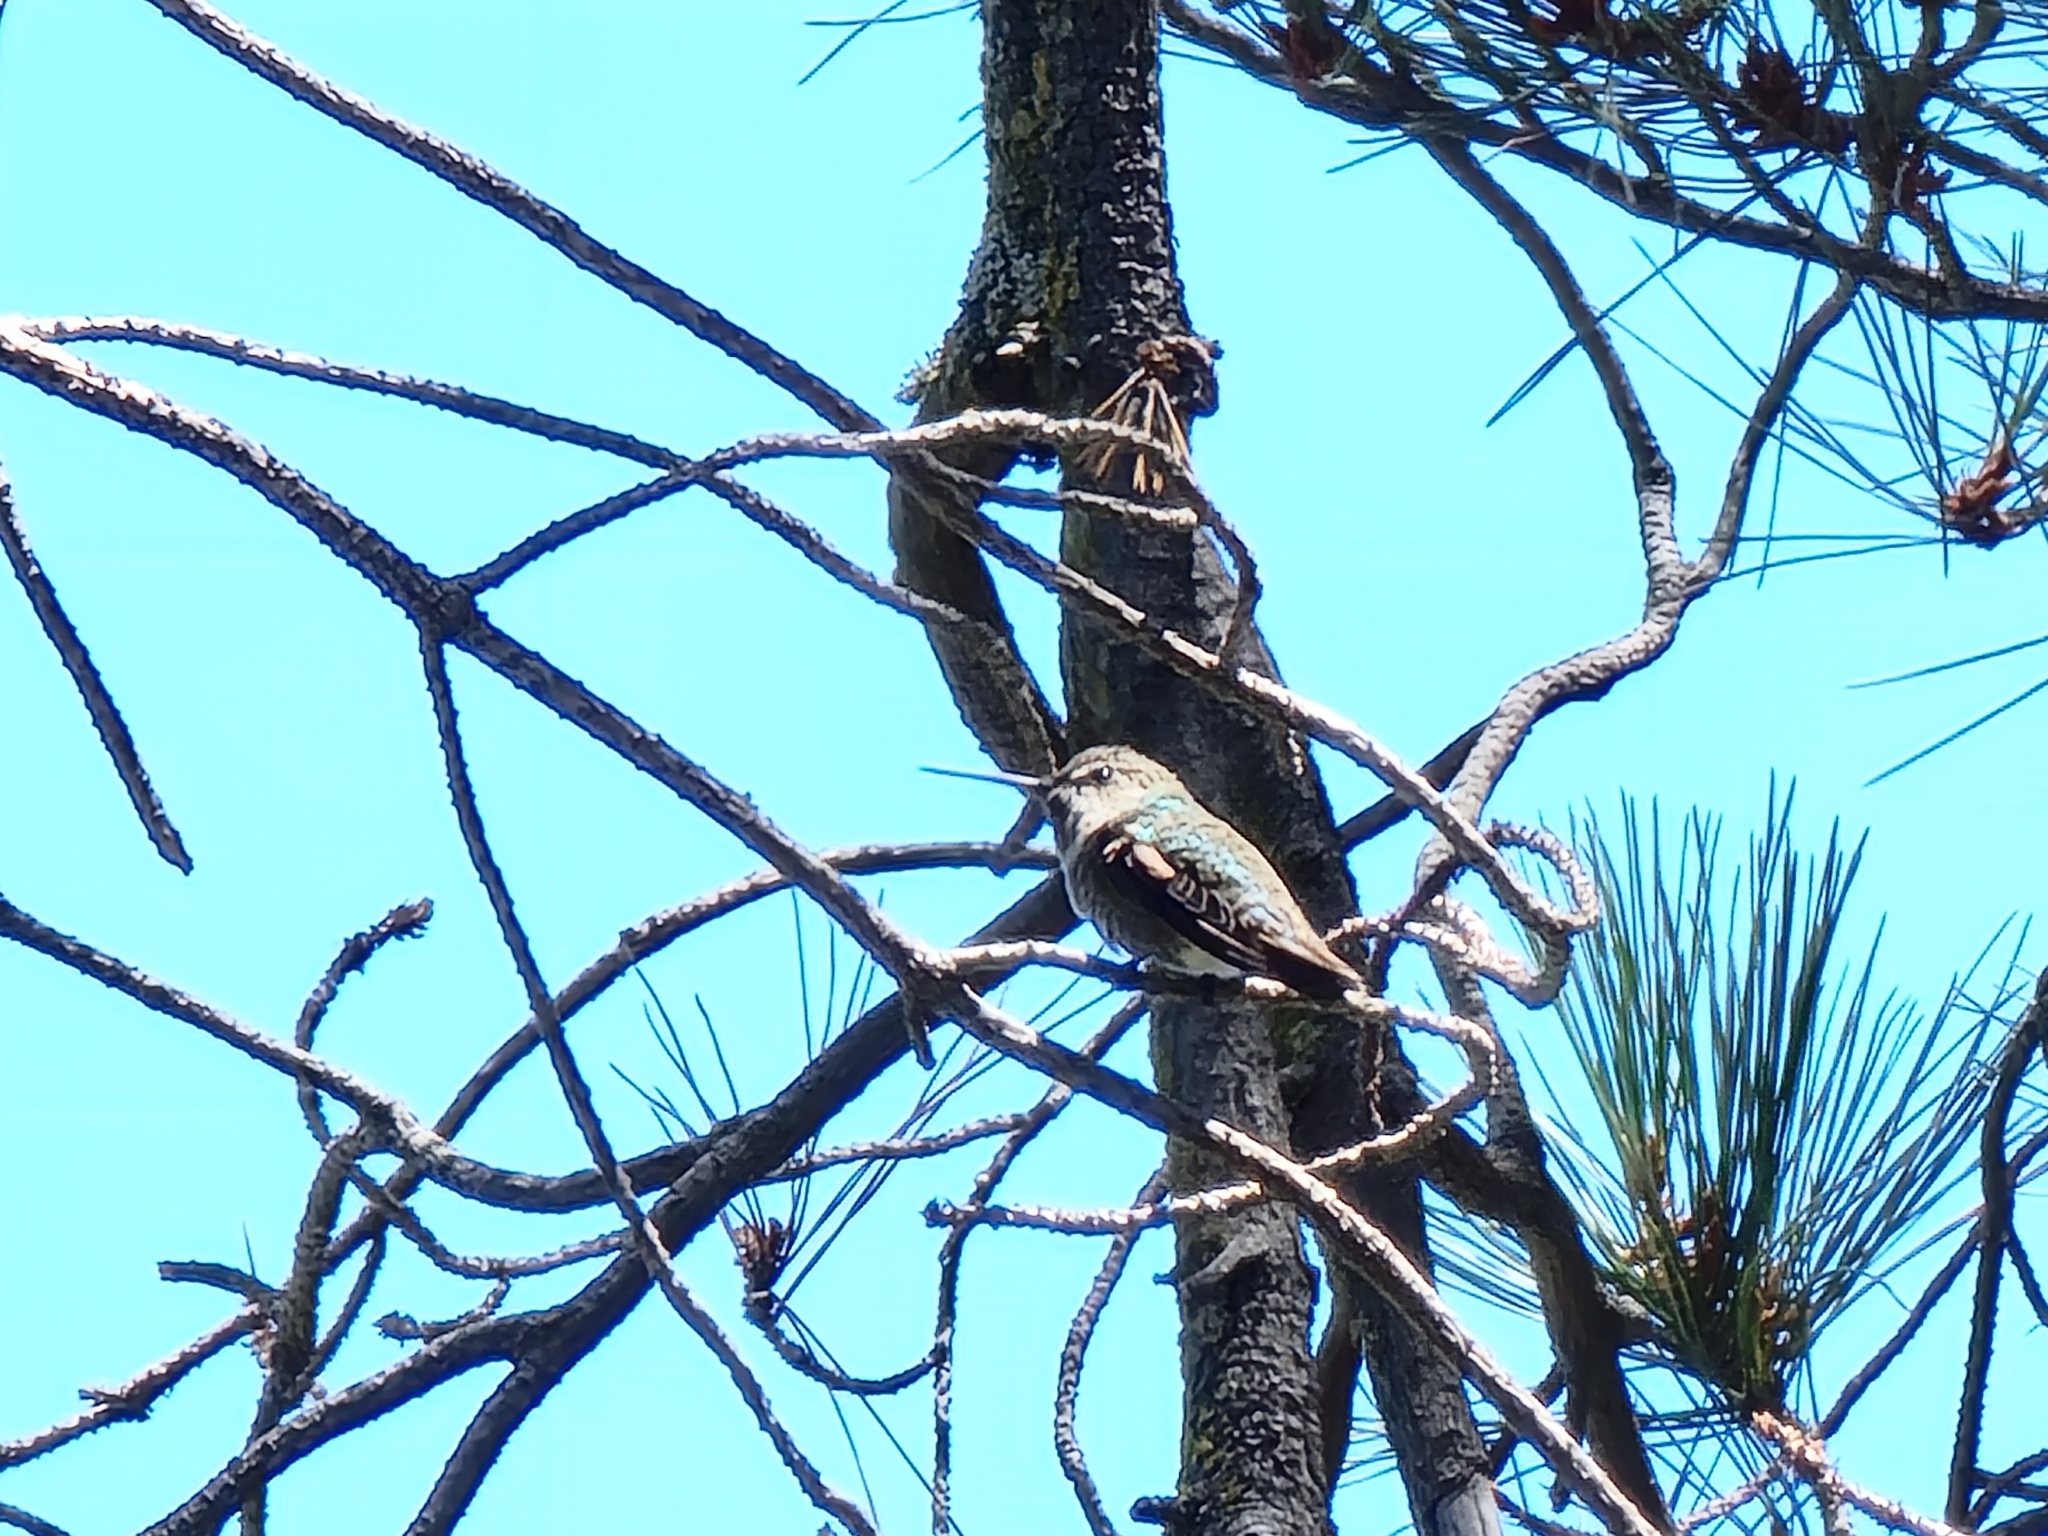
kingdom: Animalia
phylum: Chordata
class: Aves
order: Apodiformes
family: Trochilidae
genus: Calypte
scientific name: Calypte anna
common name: Anna's hummingbird
